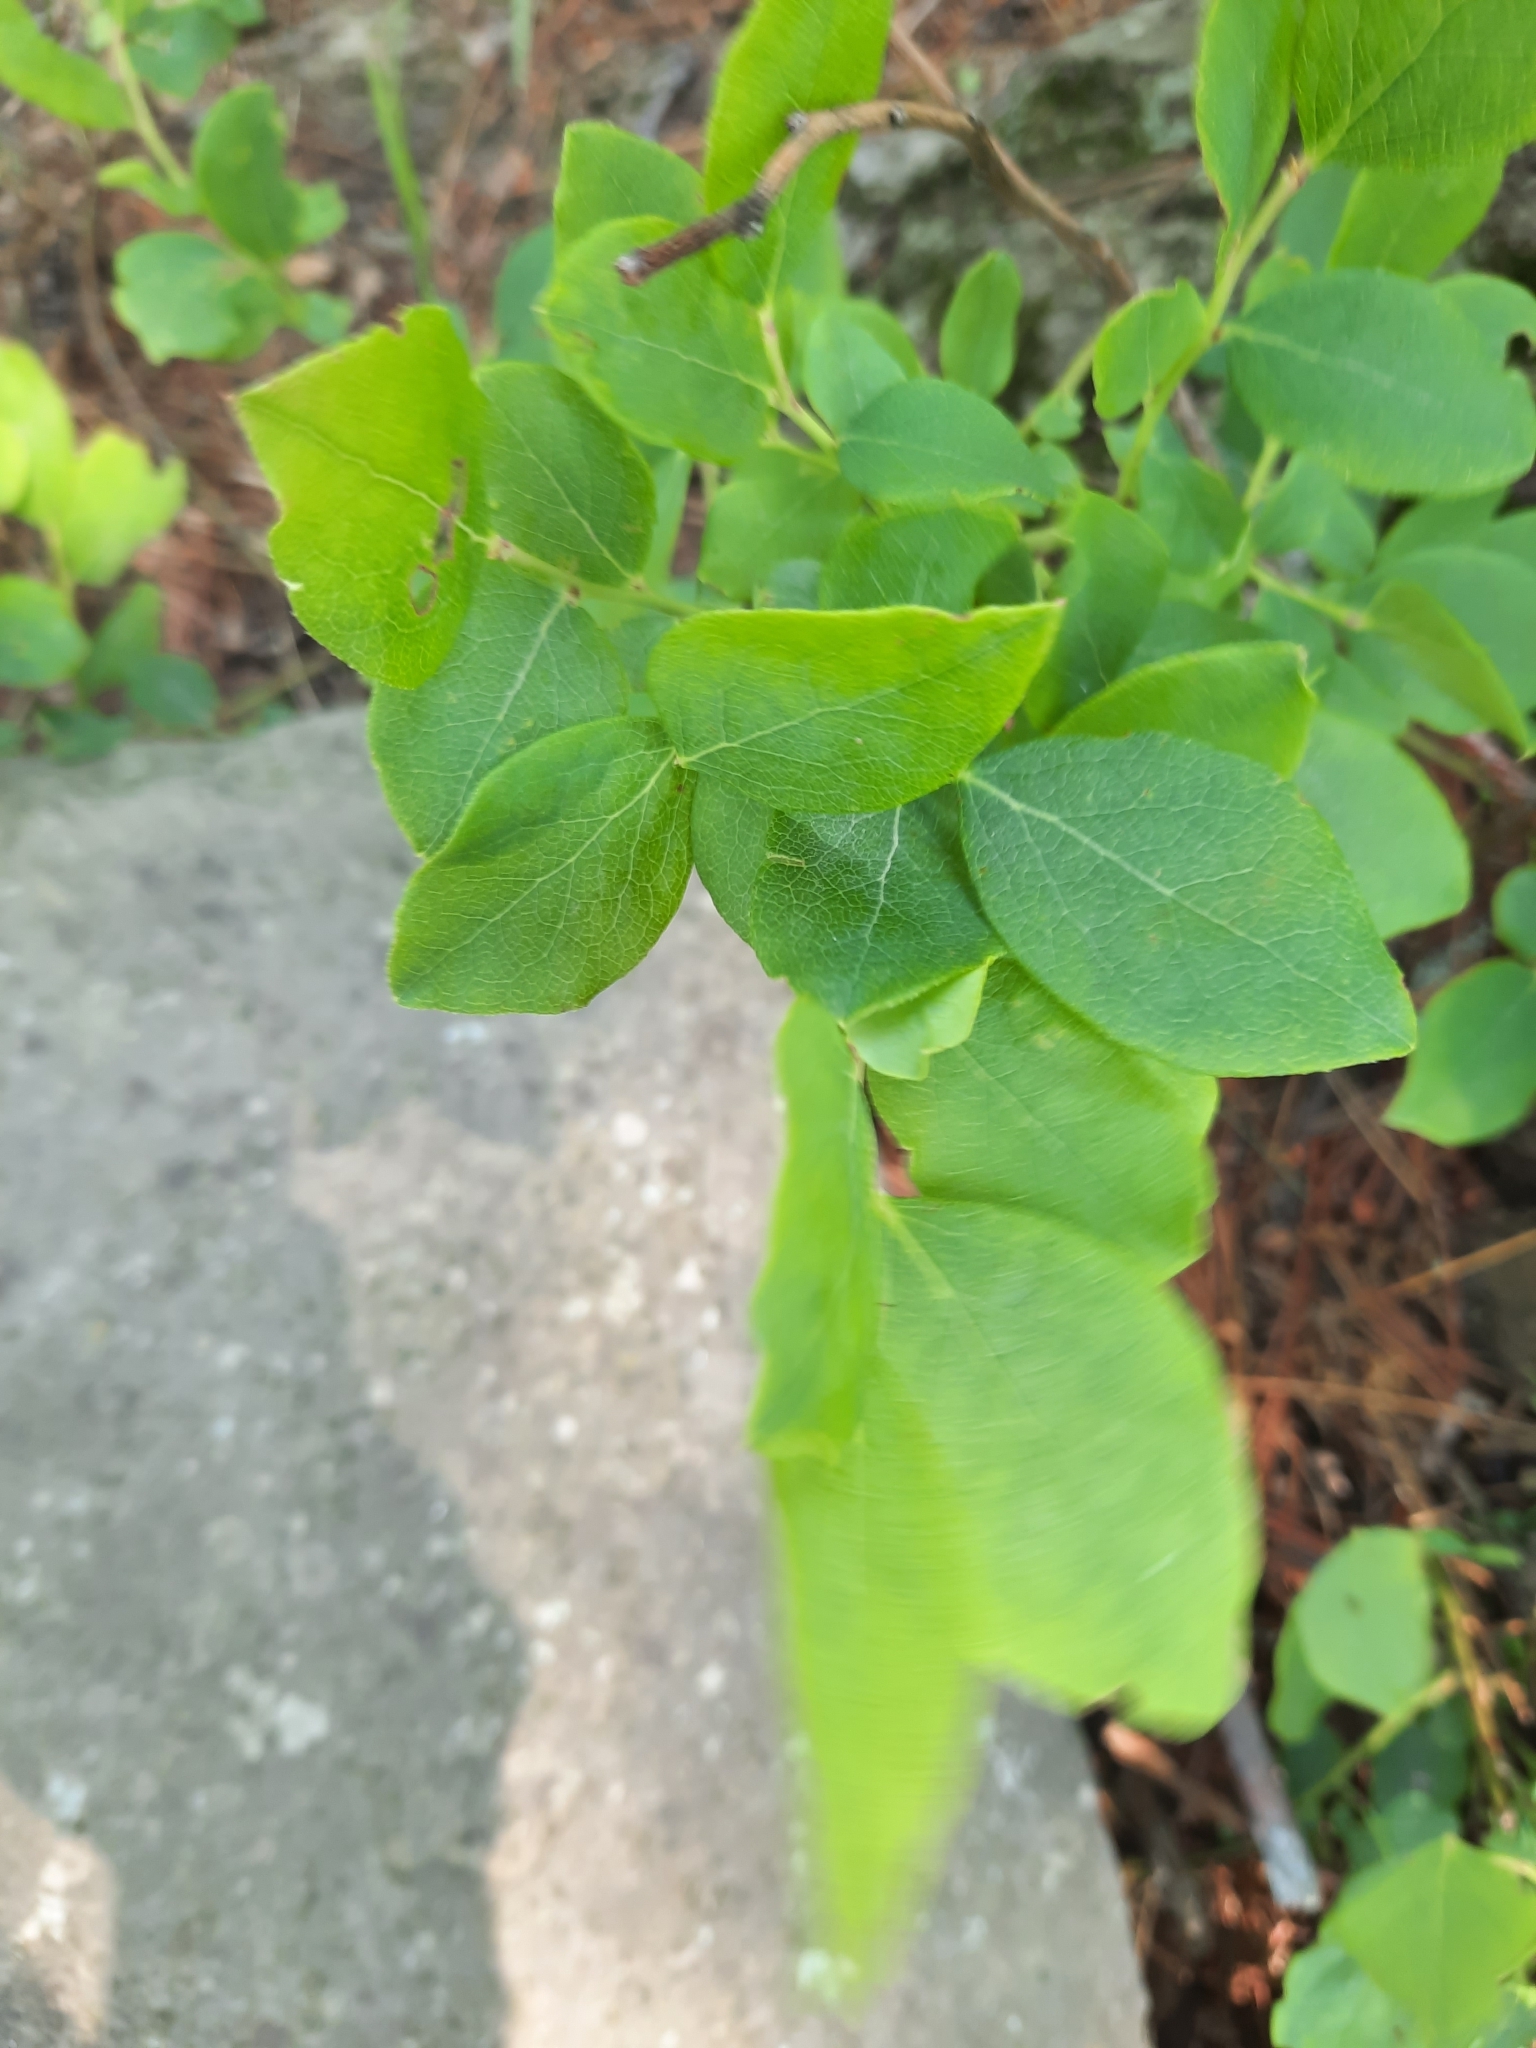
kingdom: Plantae
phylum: Tracheophyta
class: Magnoliopsida
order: Ericales
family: Ericaceae
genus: Vaccinium
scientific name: Vaccinium pallidum
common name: Blue ridge blueberry
